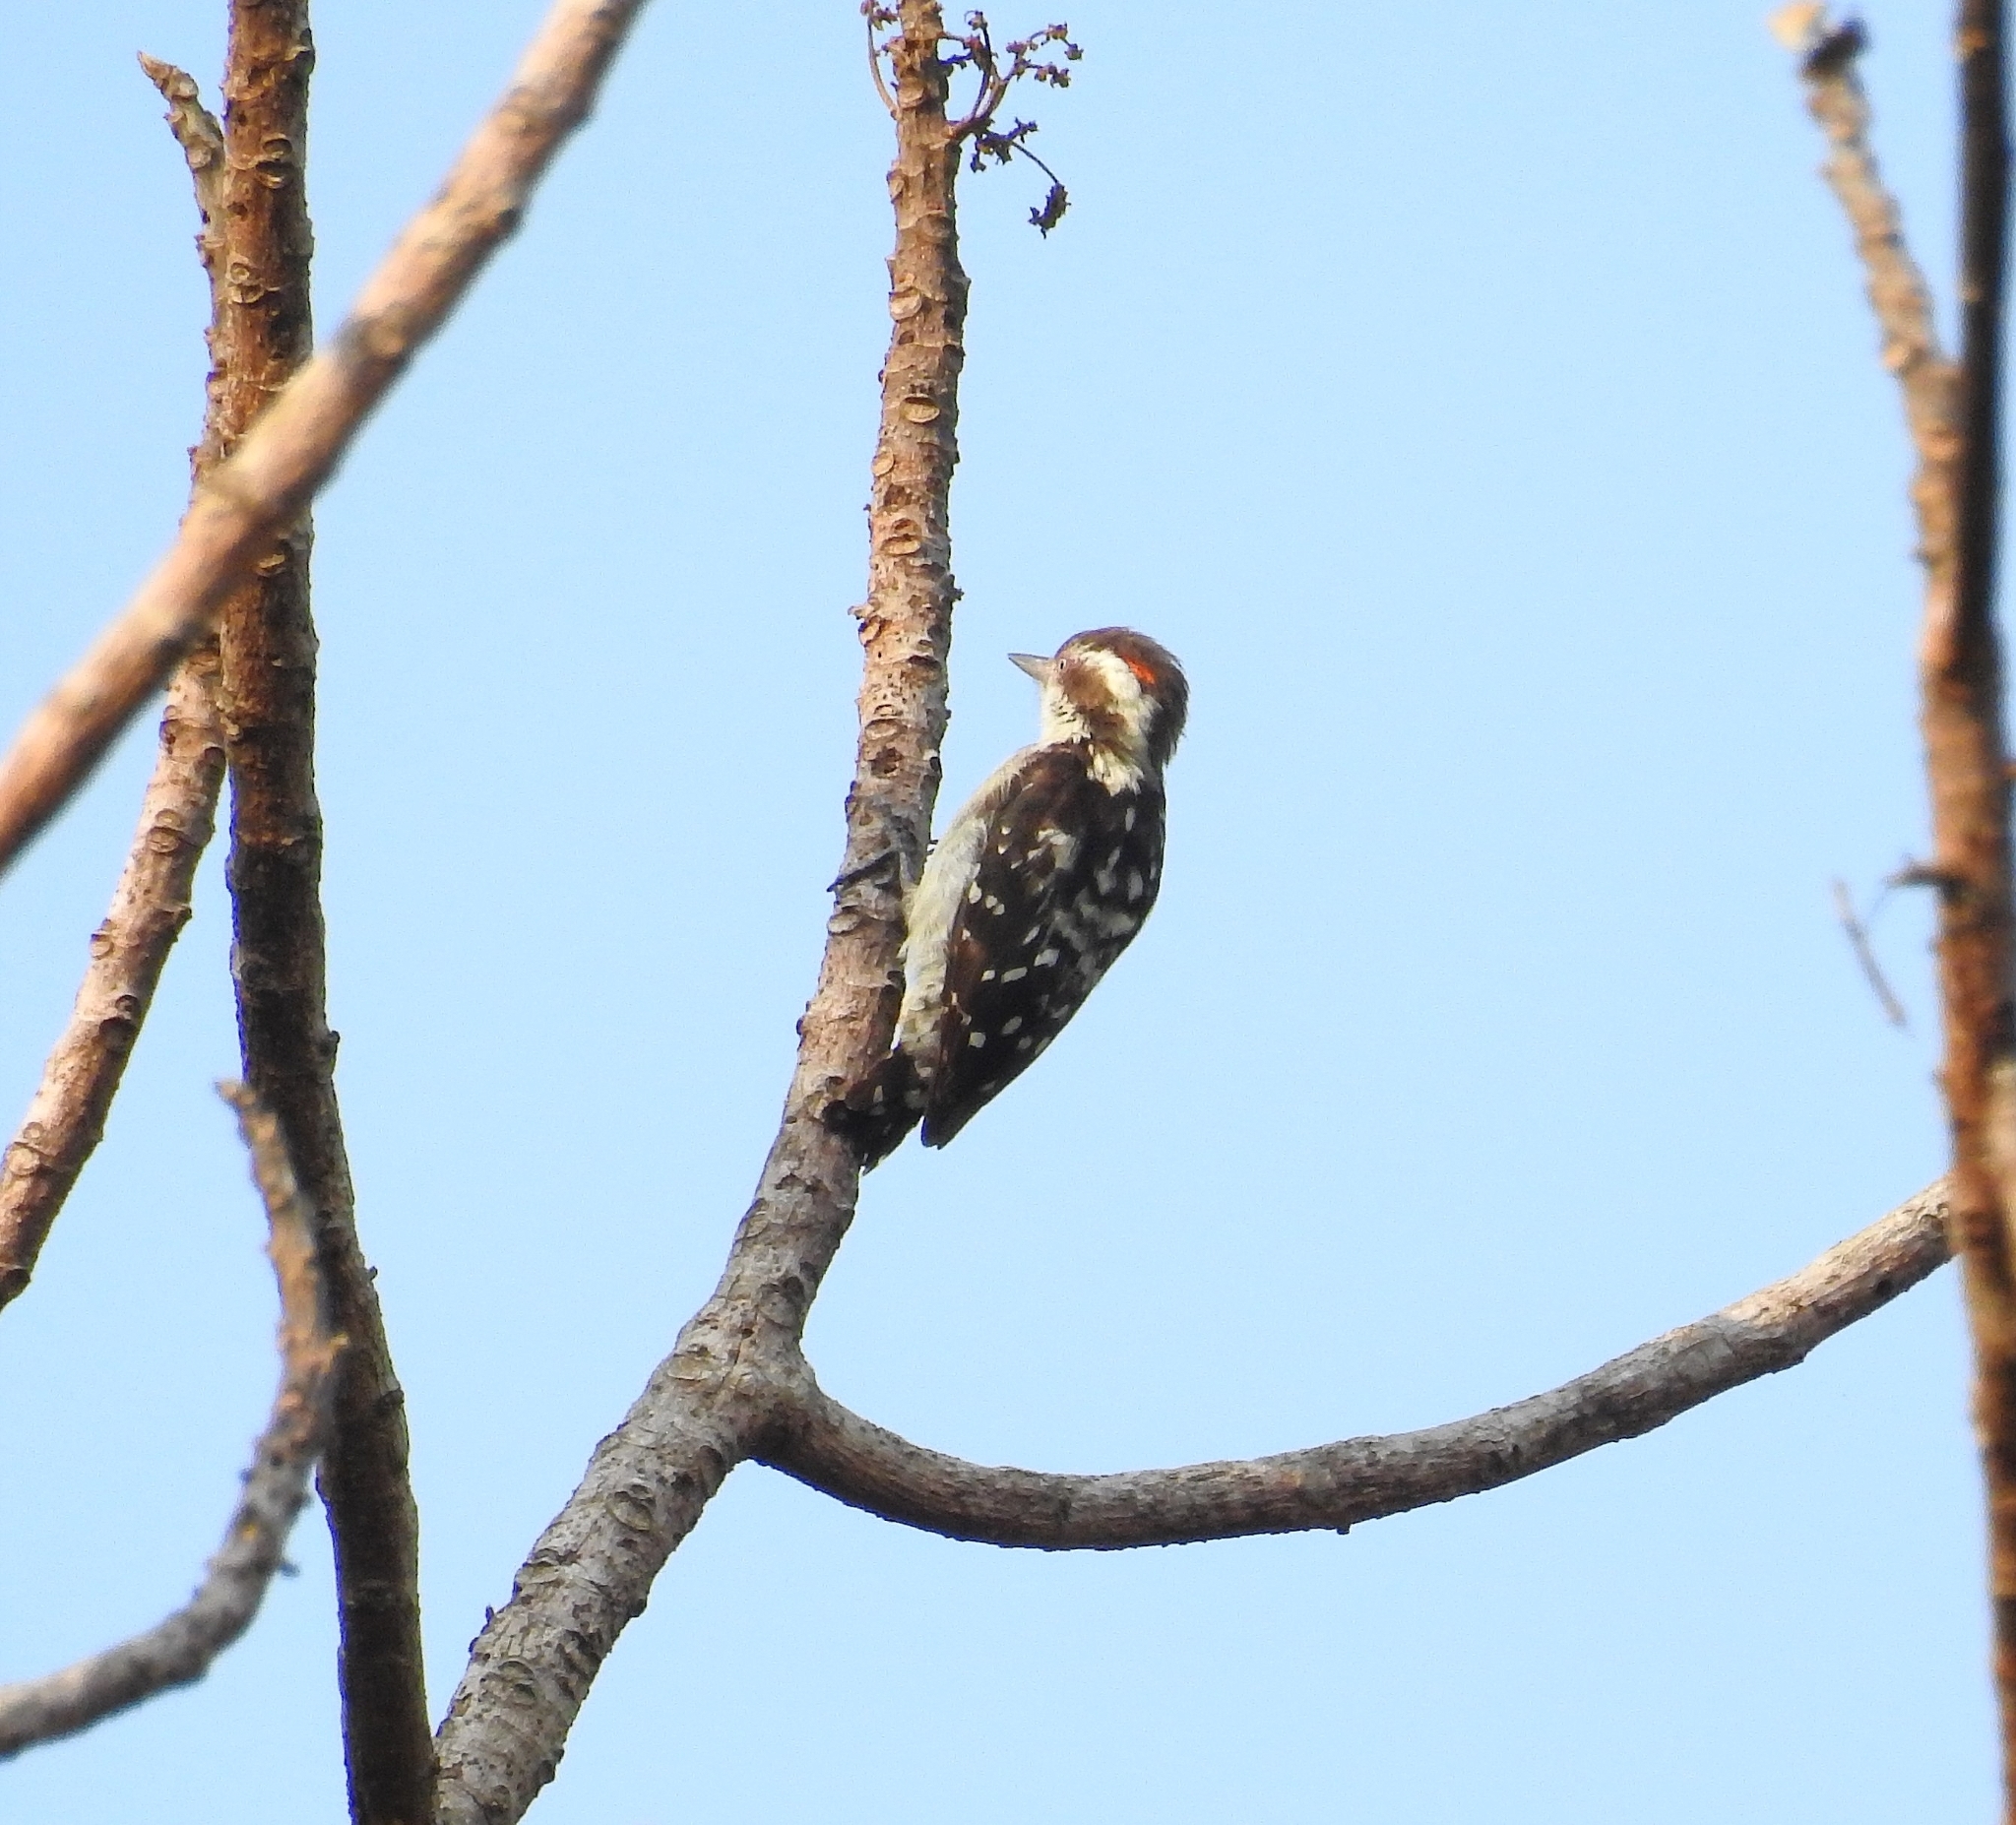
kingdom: Animalia
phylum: Chordata
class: Aves
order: Piciformes
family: Picidae
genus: Yungipicus
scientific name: Yungipicus nanus
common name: Brown-capped pygmy woodpecker
